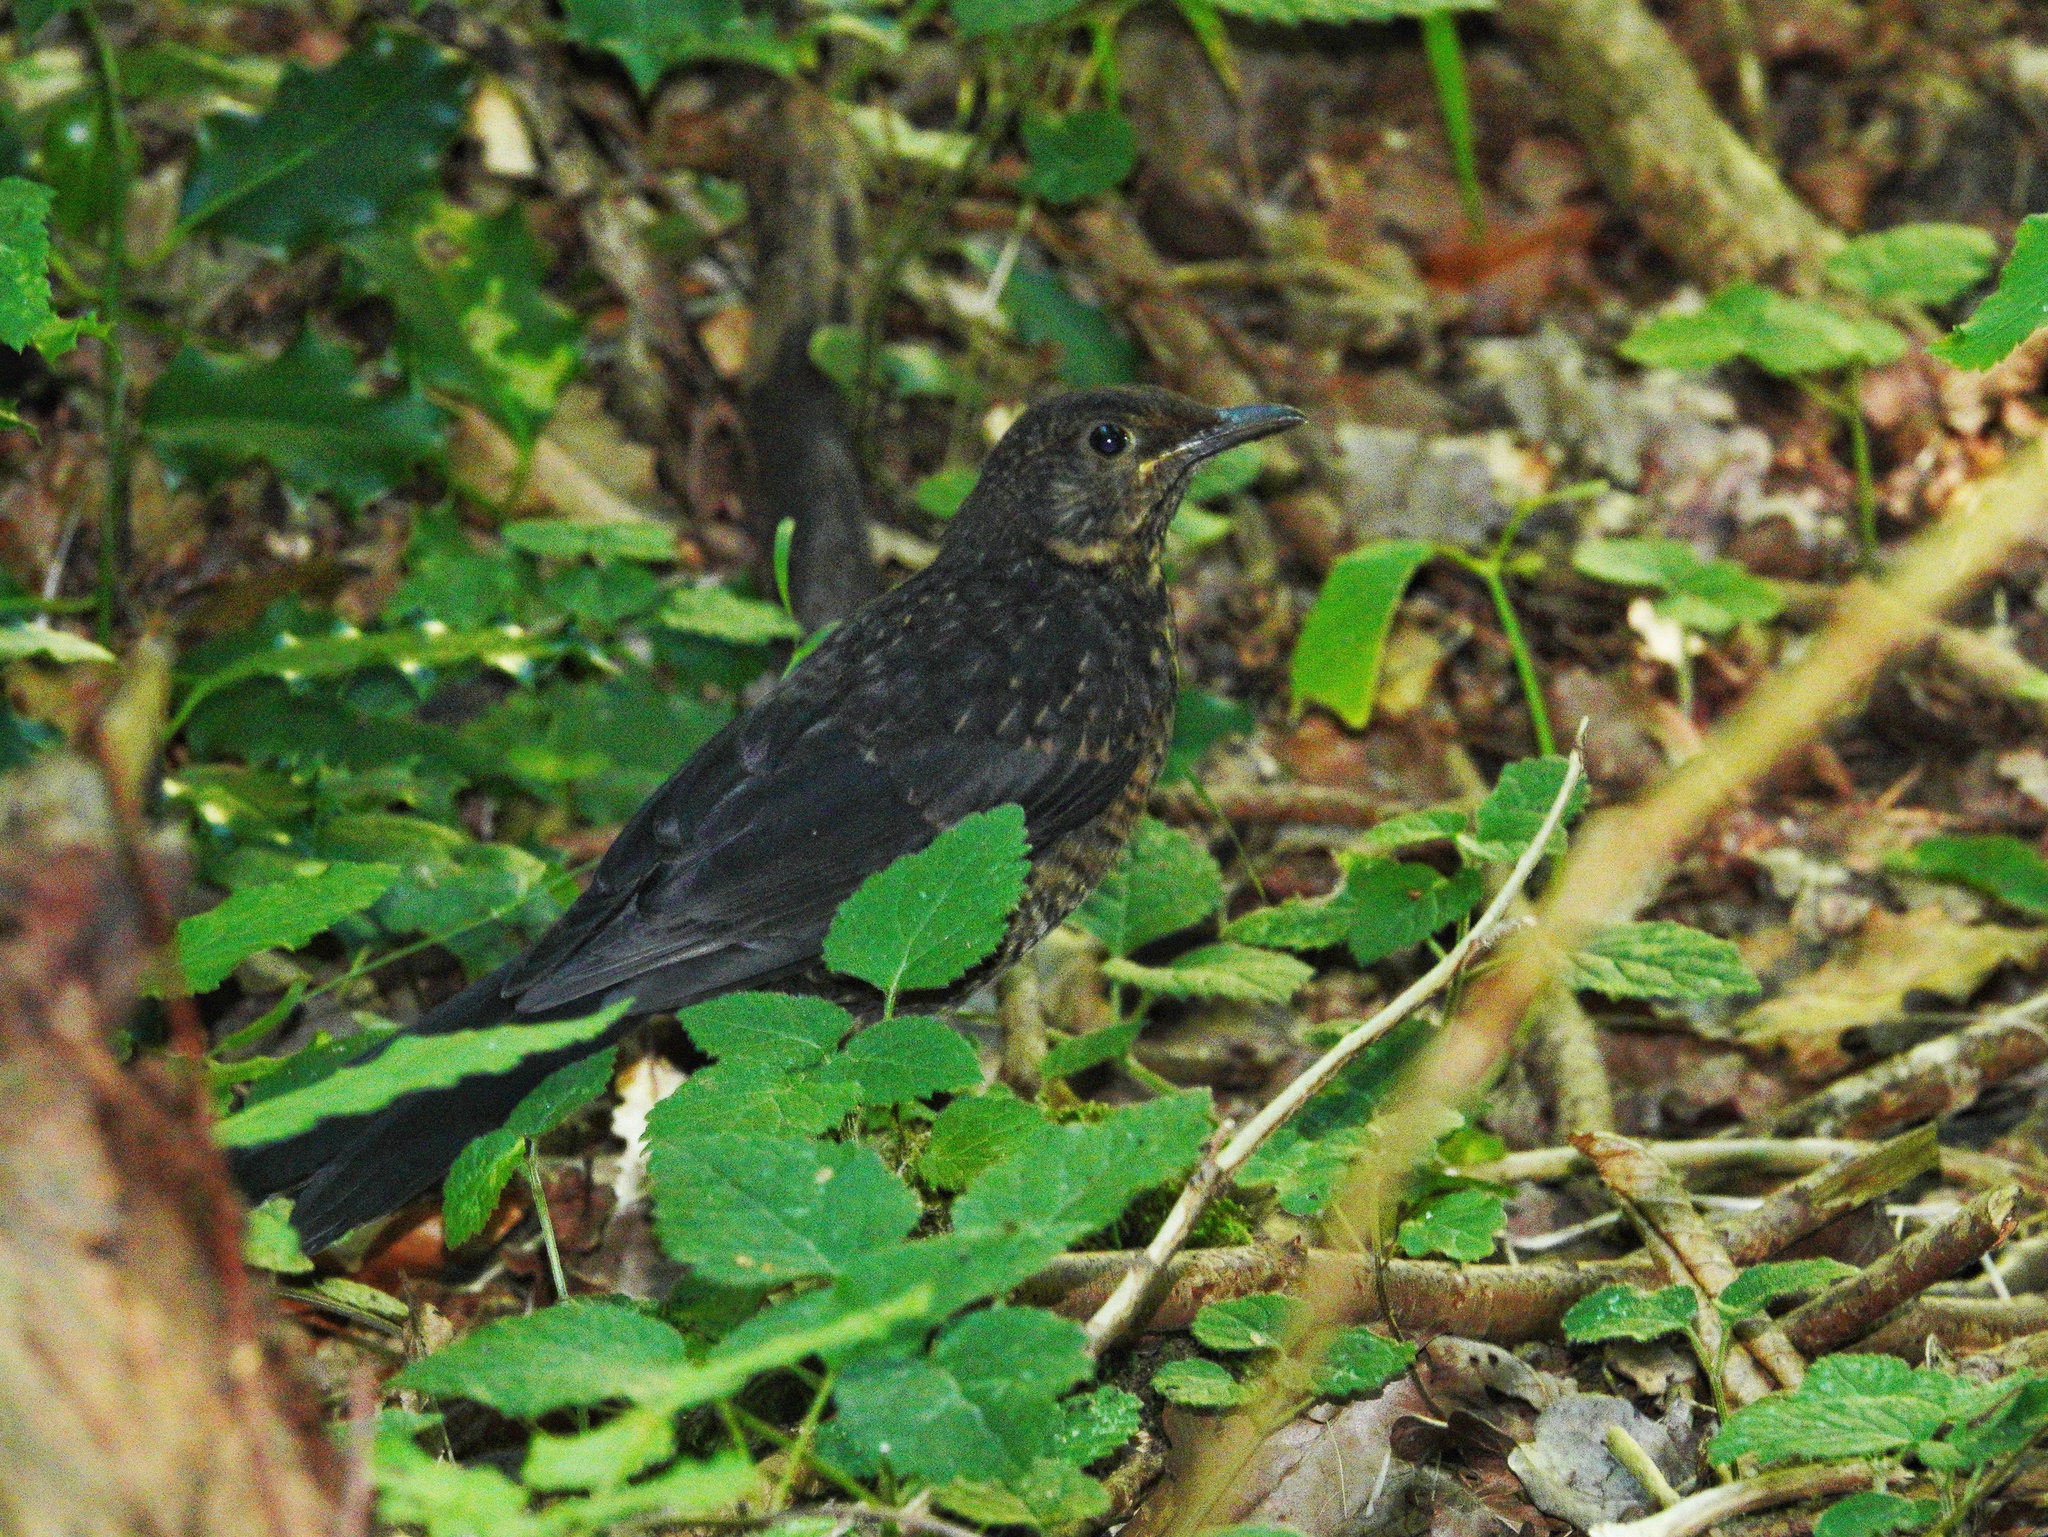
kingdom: Animalia
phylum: Chordata
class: Aves
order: Passeriformes
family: Turdidae
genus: Turdus
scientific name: Turdus merula
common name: Common blackbird
